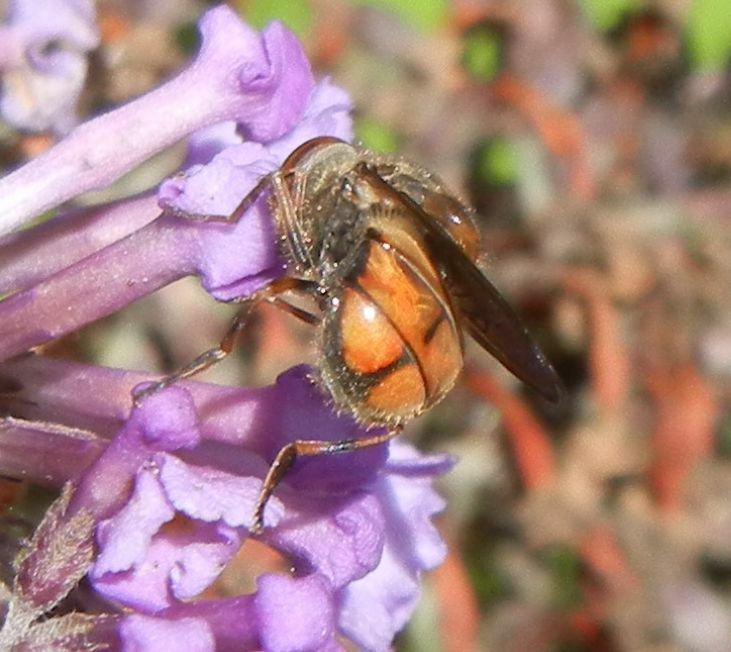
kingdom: Animalia
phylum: Arthropoda
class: Insecta
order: Diptera
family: Syrphidae
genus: Rhingia
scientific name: Rhingia campestris
